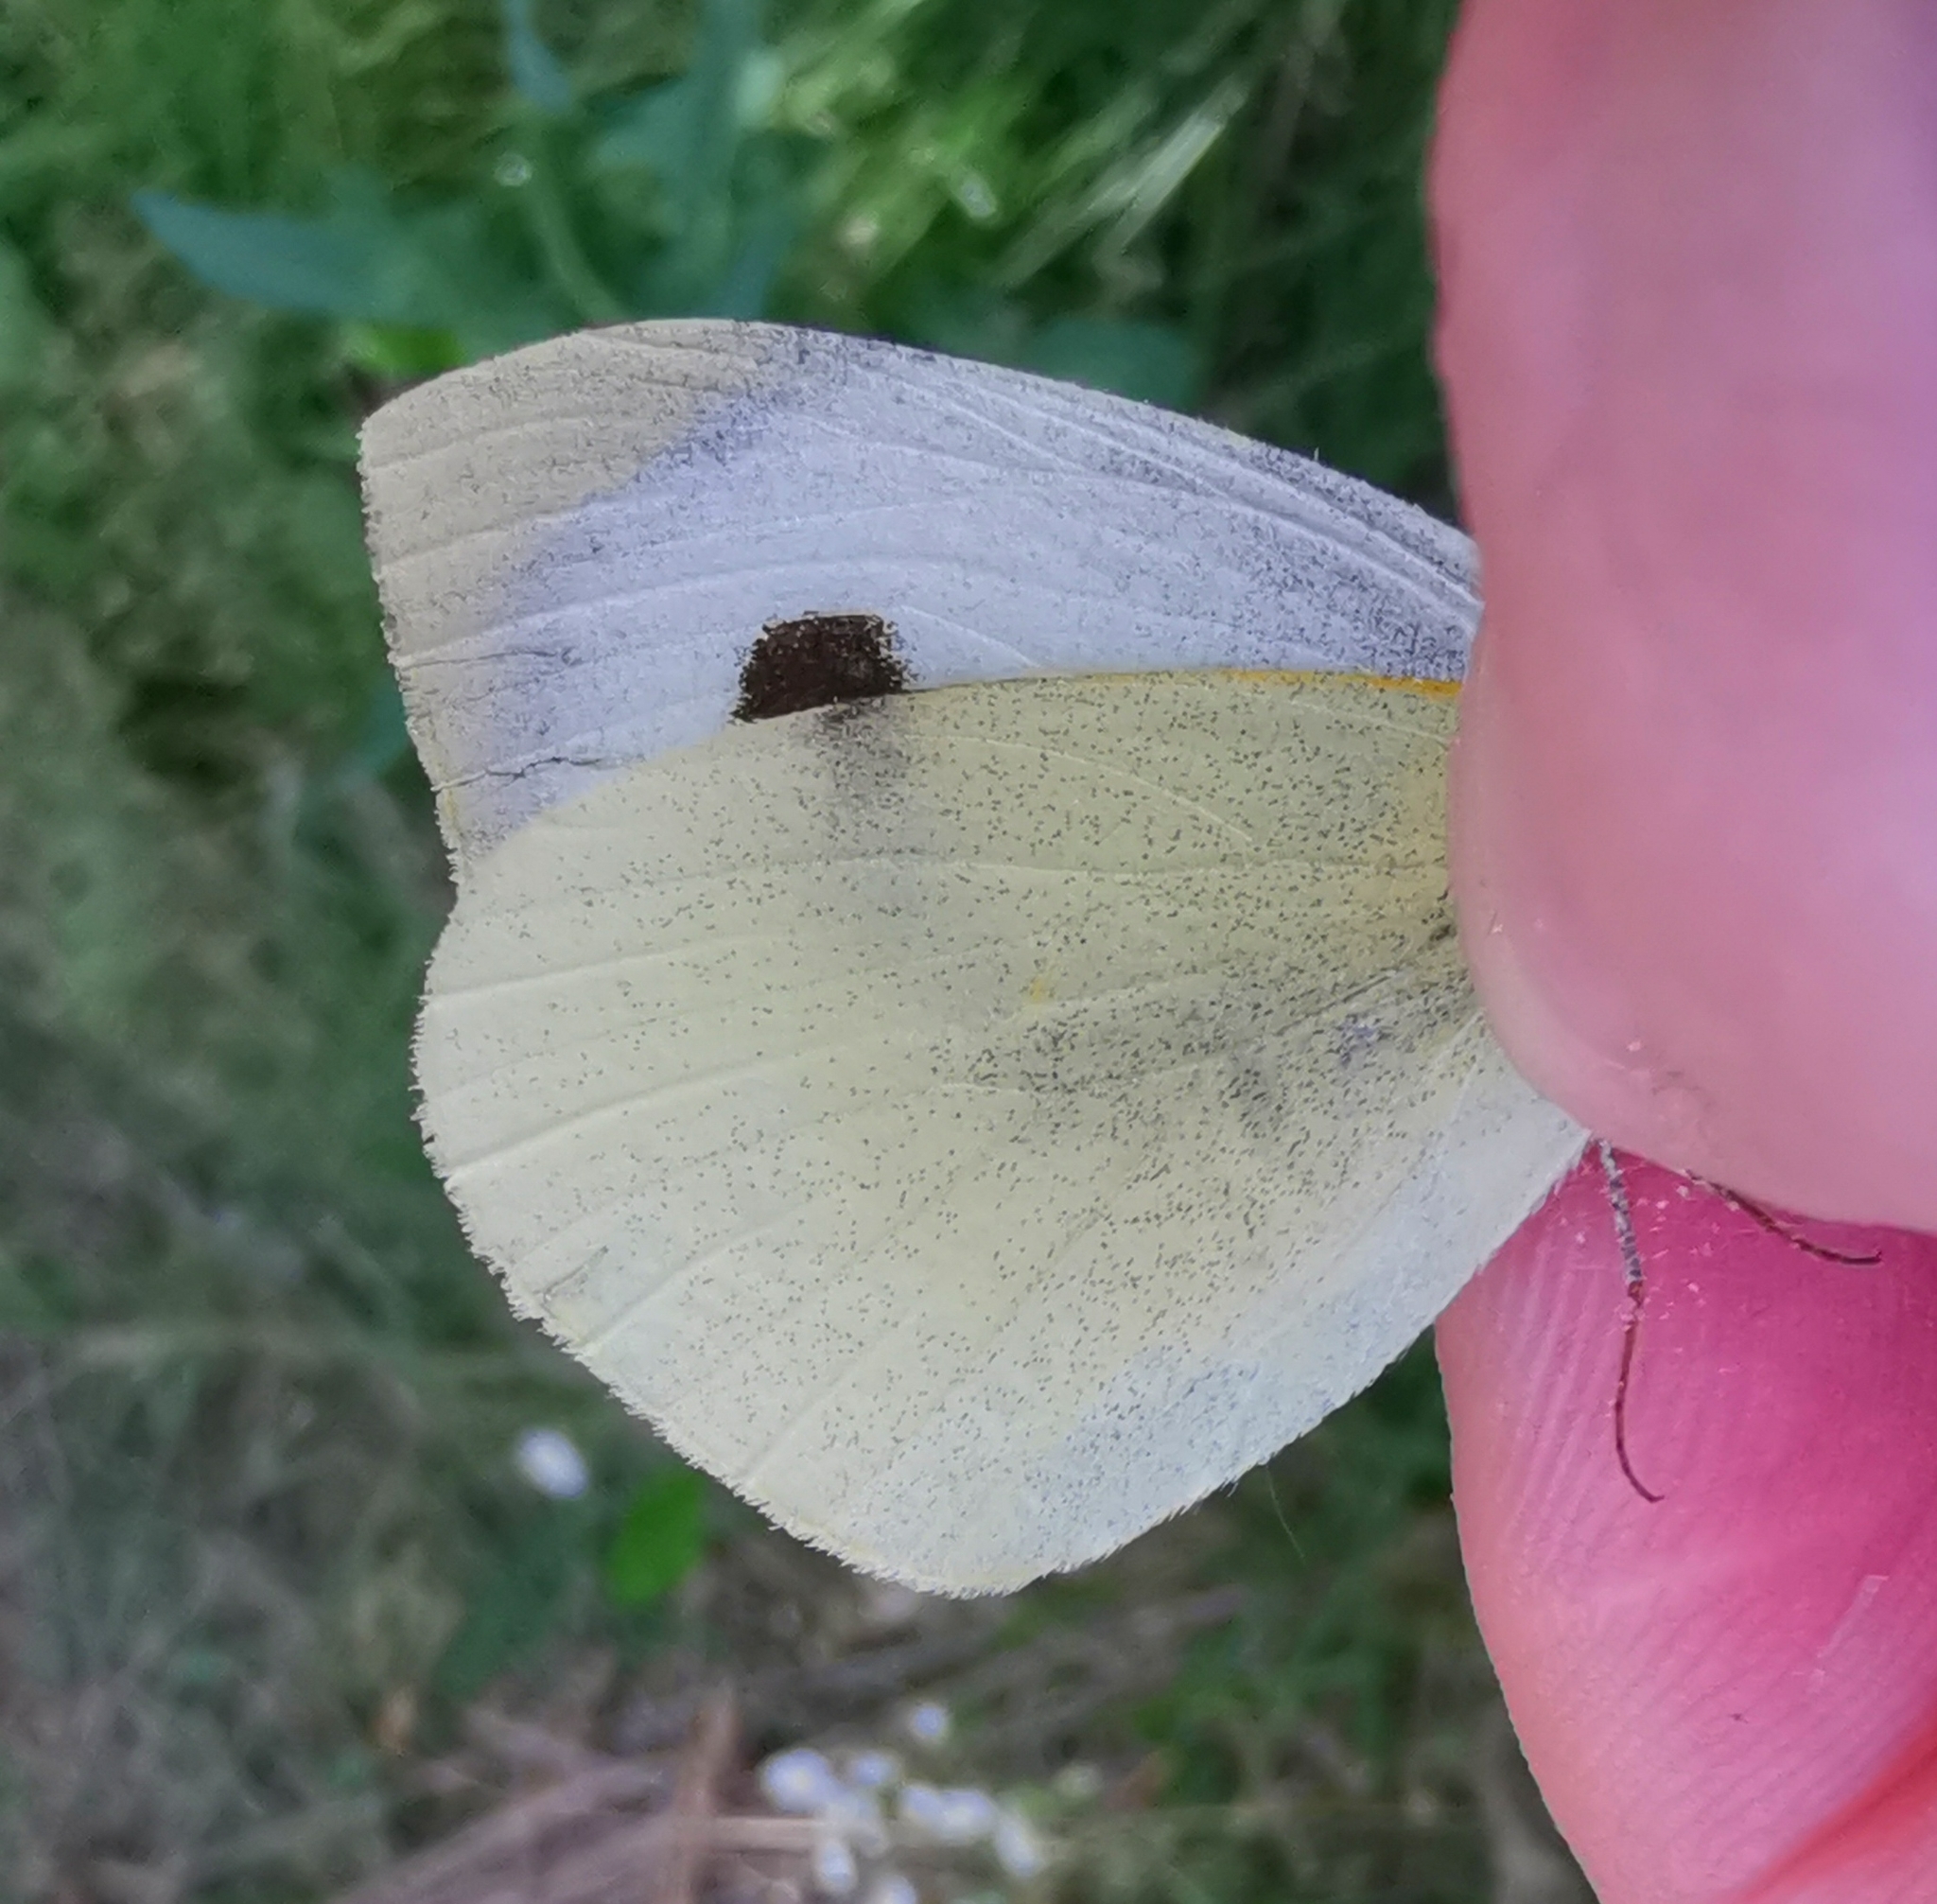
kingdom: Animalia
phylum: Arthropoda
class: Insecta
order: Lepidoptera
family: Pieridae
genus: Pieris
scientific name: Pieris brassicae
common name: Large white
